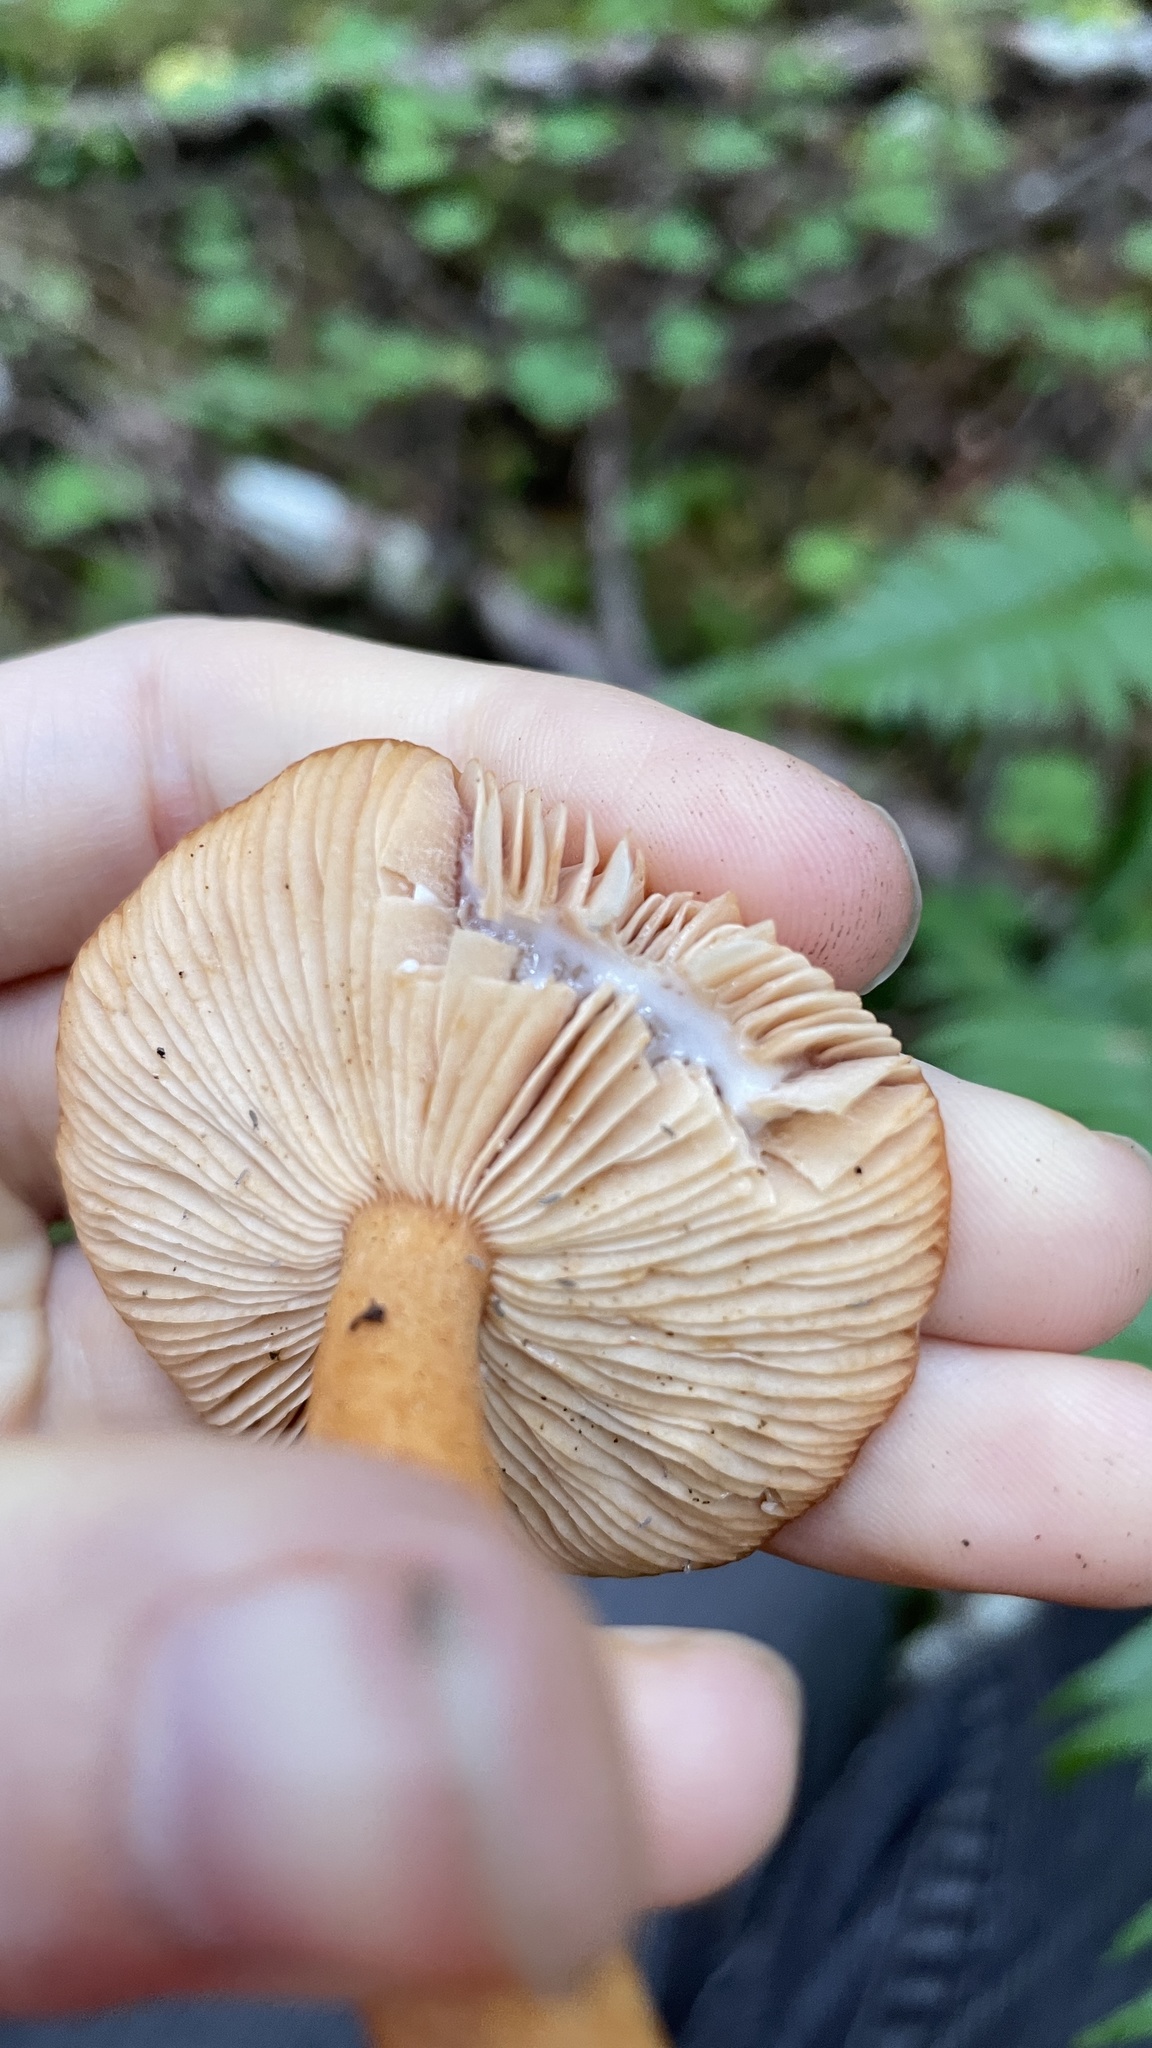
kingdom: Fungi
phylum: Basidiomycota
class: Agaricomycetes
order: Russulales
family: Russulaceae
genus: Lactarius
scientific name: Lactarius rubidus
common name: Candy cap
